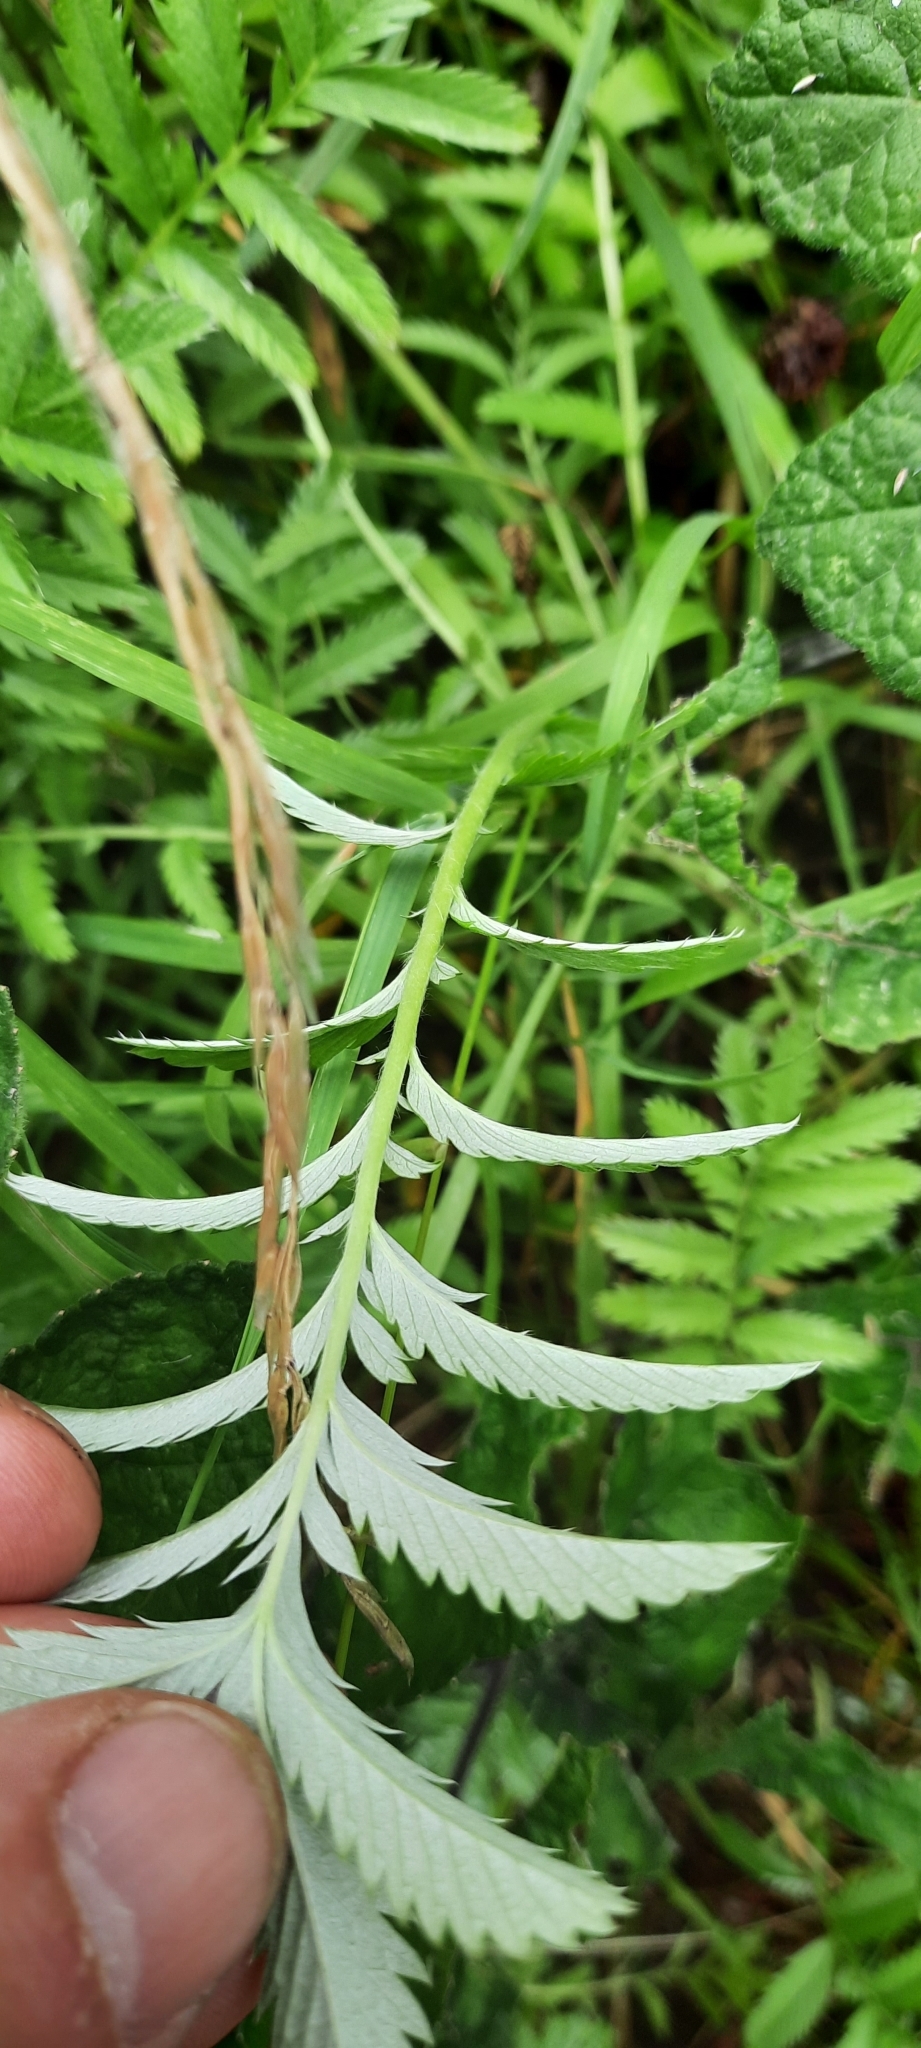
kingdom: Plantae
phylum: Tracheophyta
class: Magnoliopsida
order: Rosales
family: Rosaceae
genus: Argentina
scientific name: Argentina anserina
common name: Common silverweed
